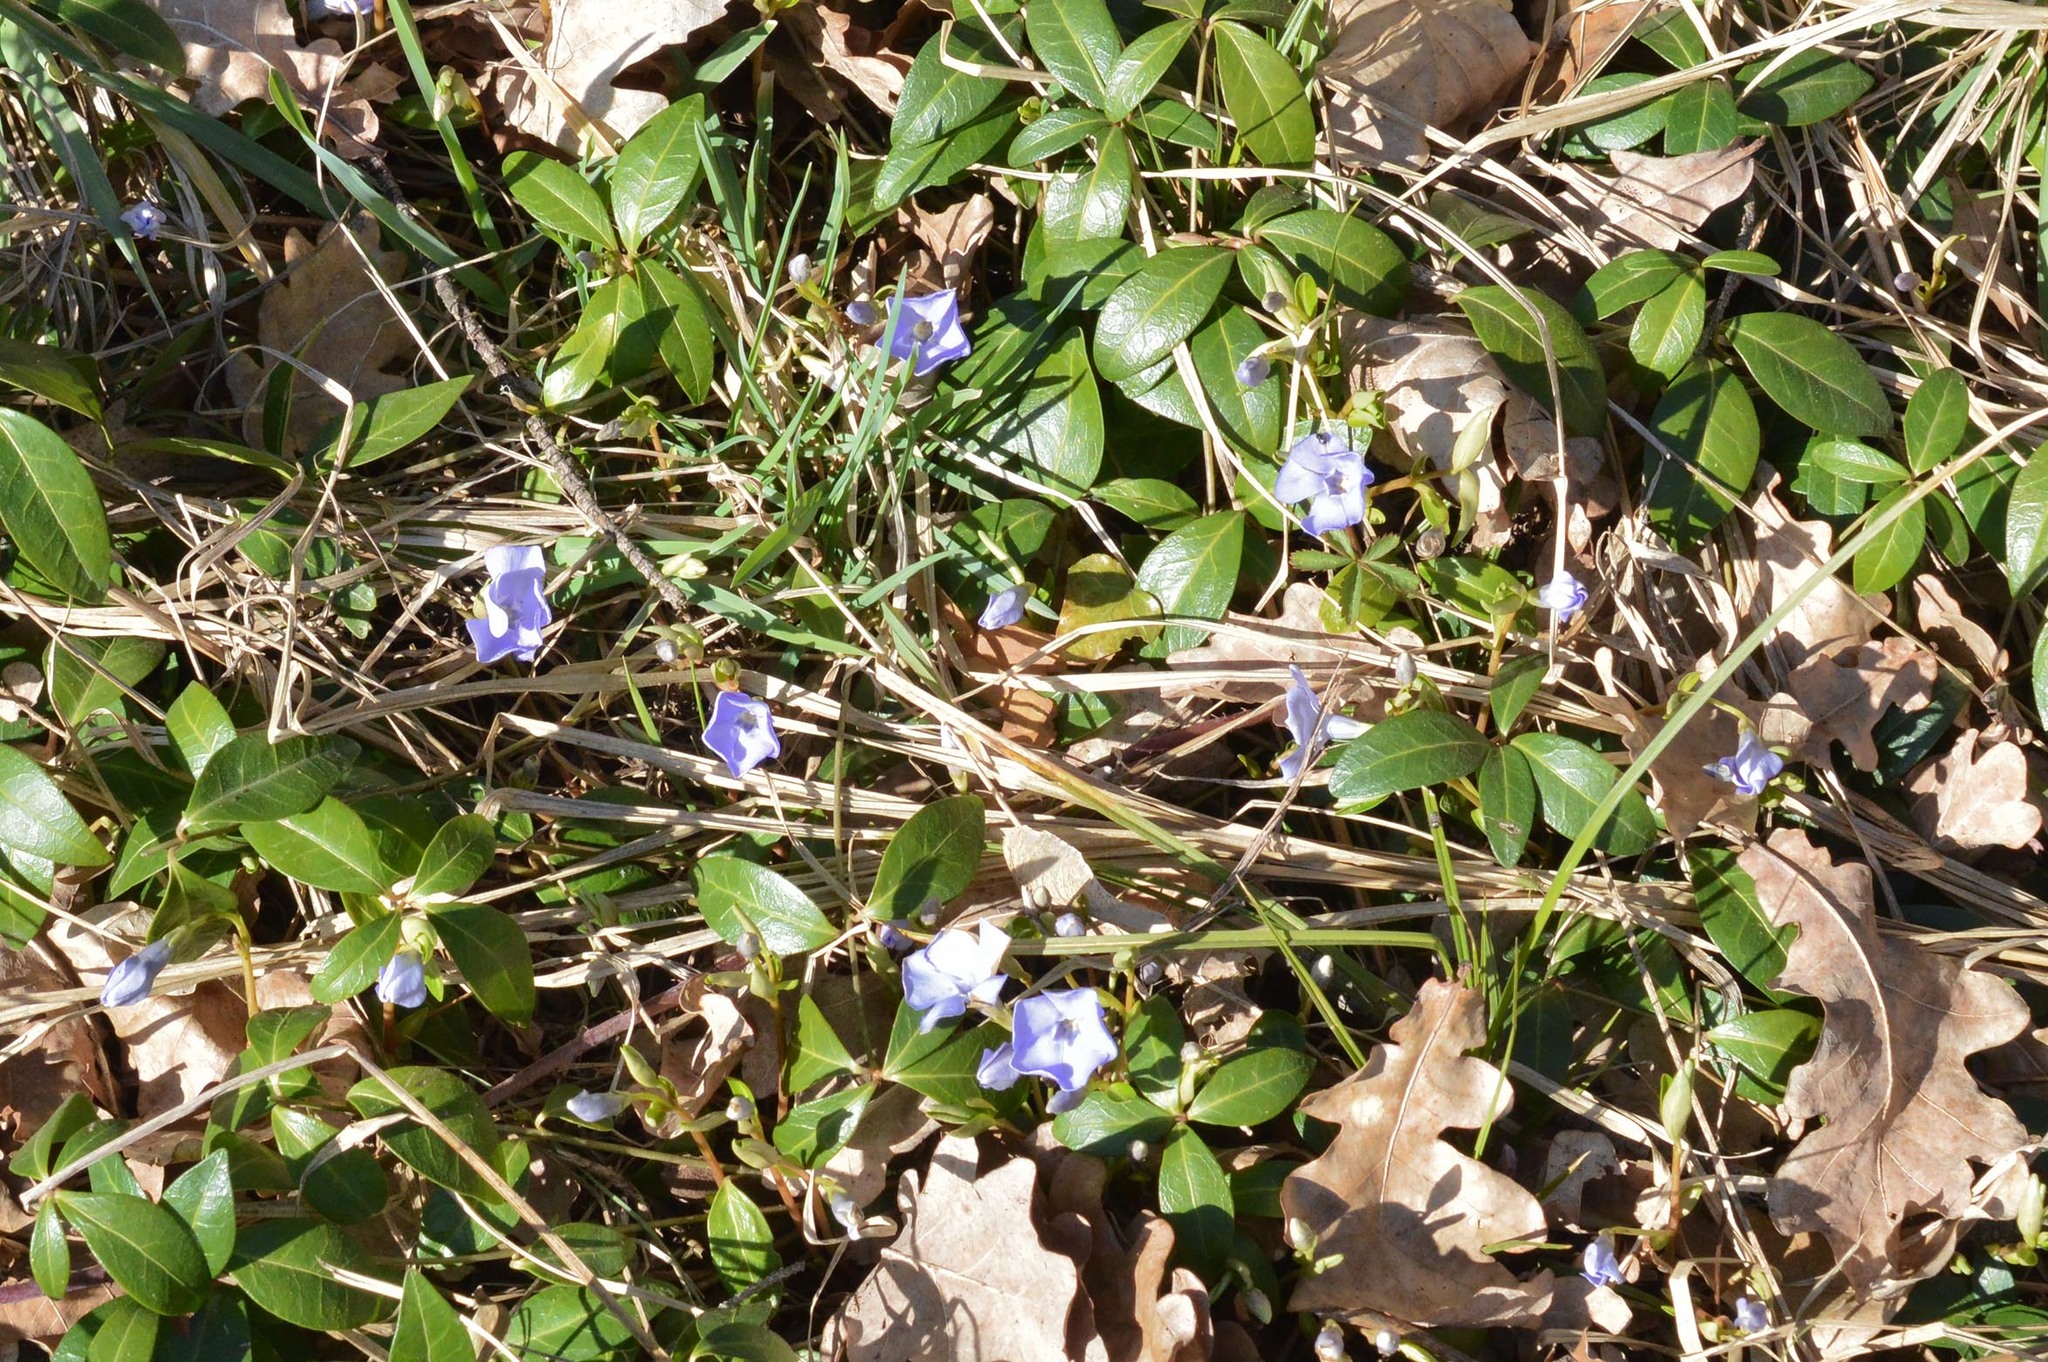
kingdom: Plantae
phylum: Tracheophyta
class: Magnoliopsida
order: Gentianales
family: Apocynaceae
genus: Vinca
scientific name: Vinca minor
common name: Lesser periwinkle
